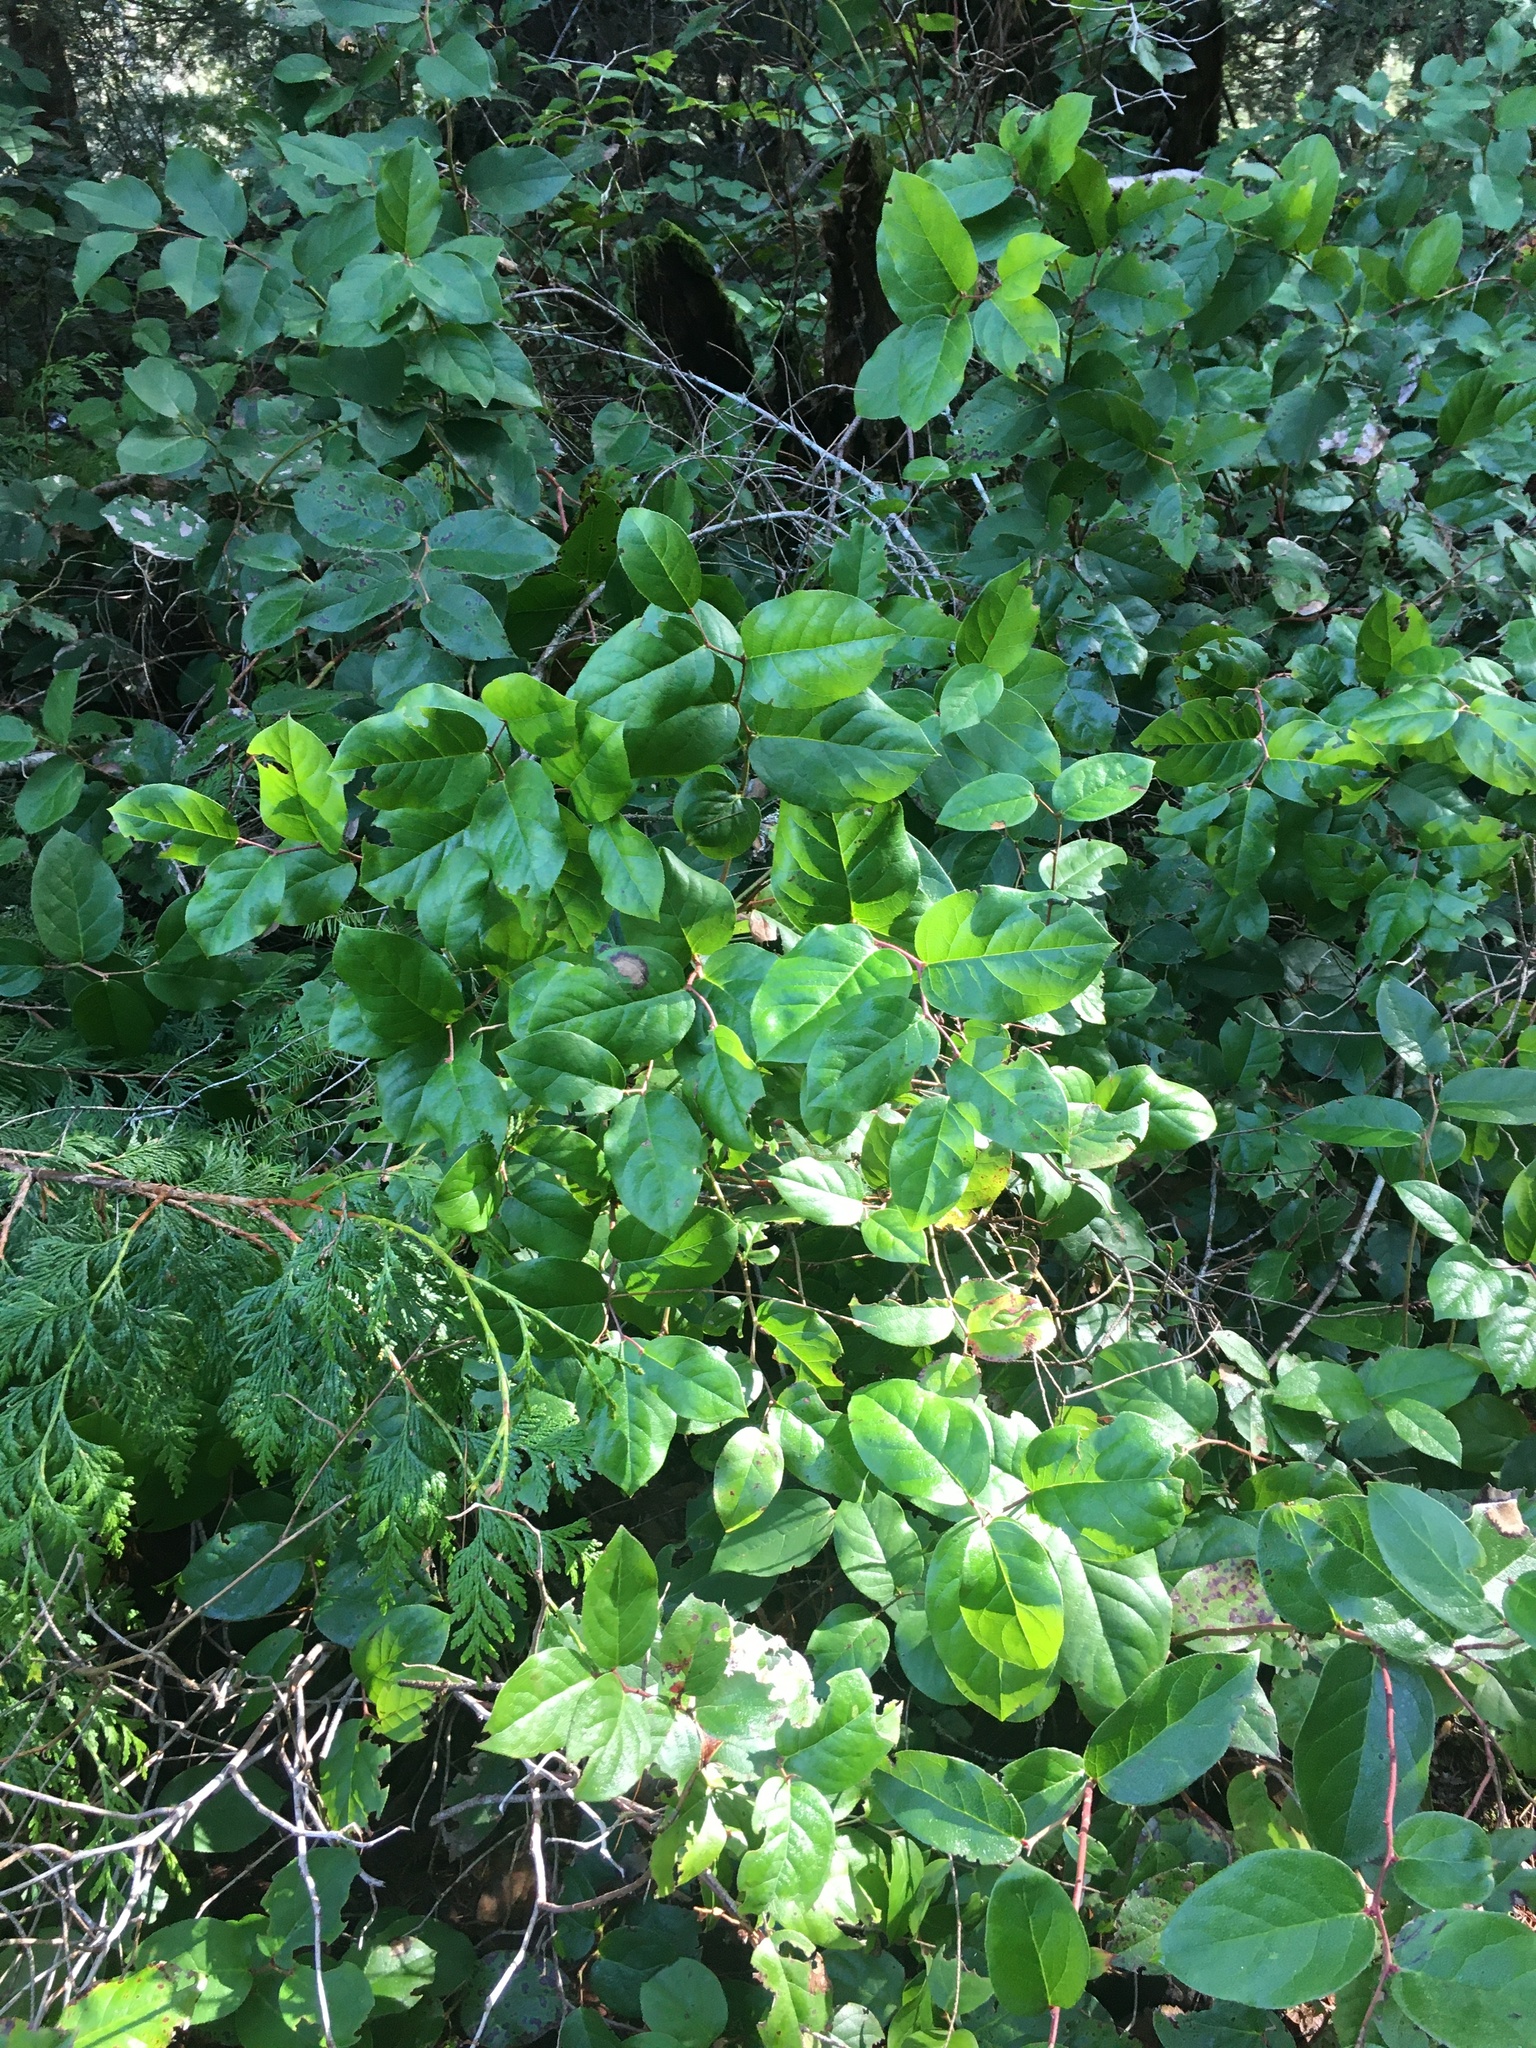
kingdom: Plantae
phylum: Tracheophyta
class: Magnoliopsida
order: Ericales
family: Ericaceae
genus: Gaultheria
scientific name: Gaultheria shallon
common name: Shallon
